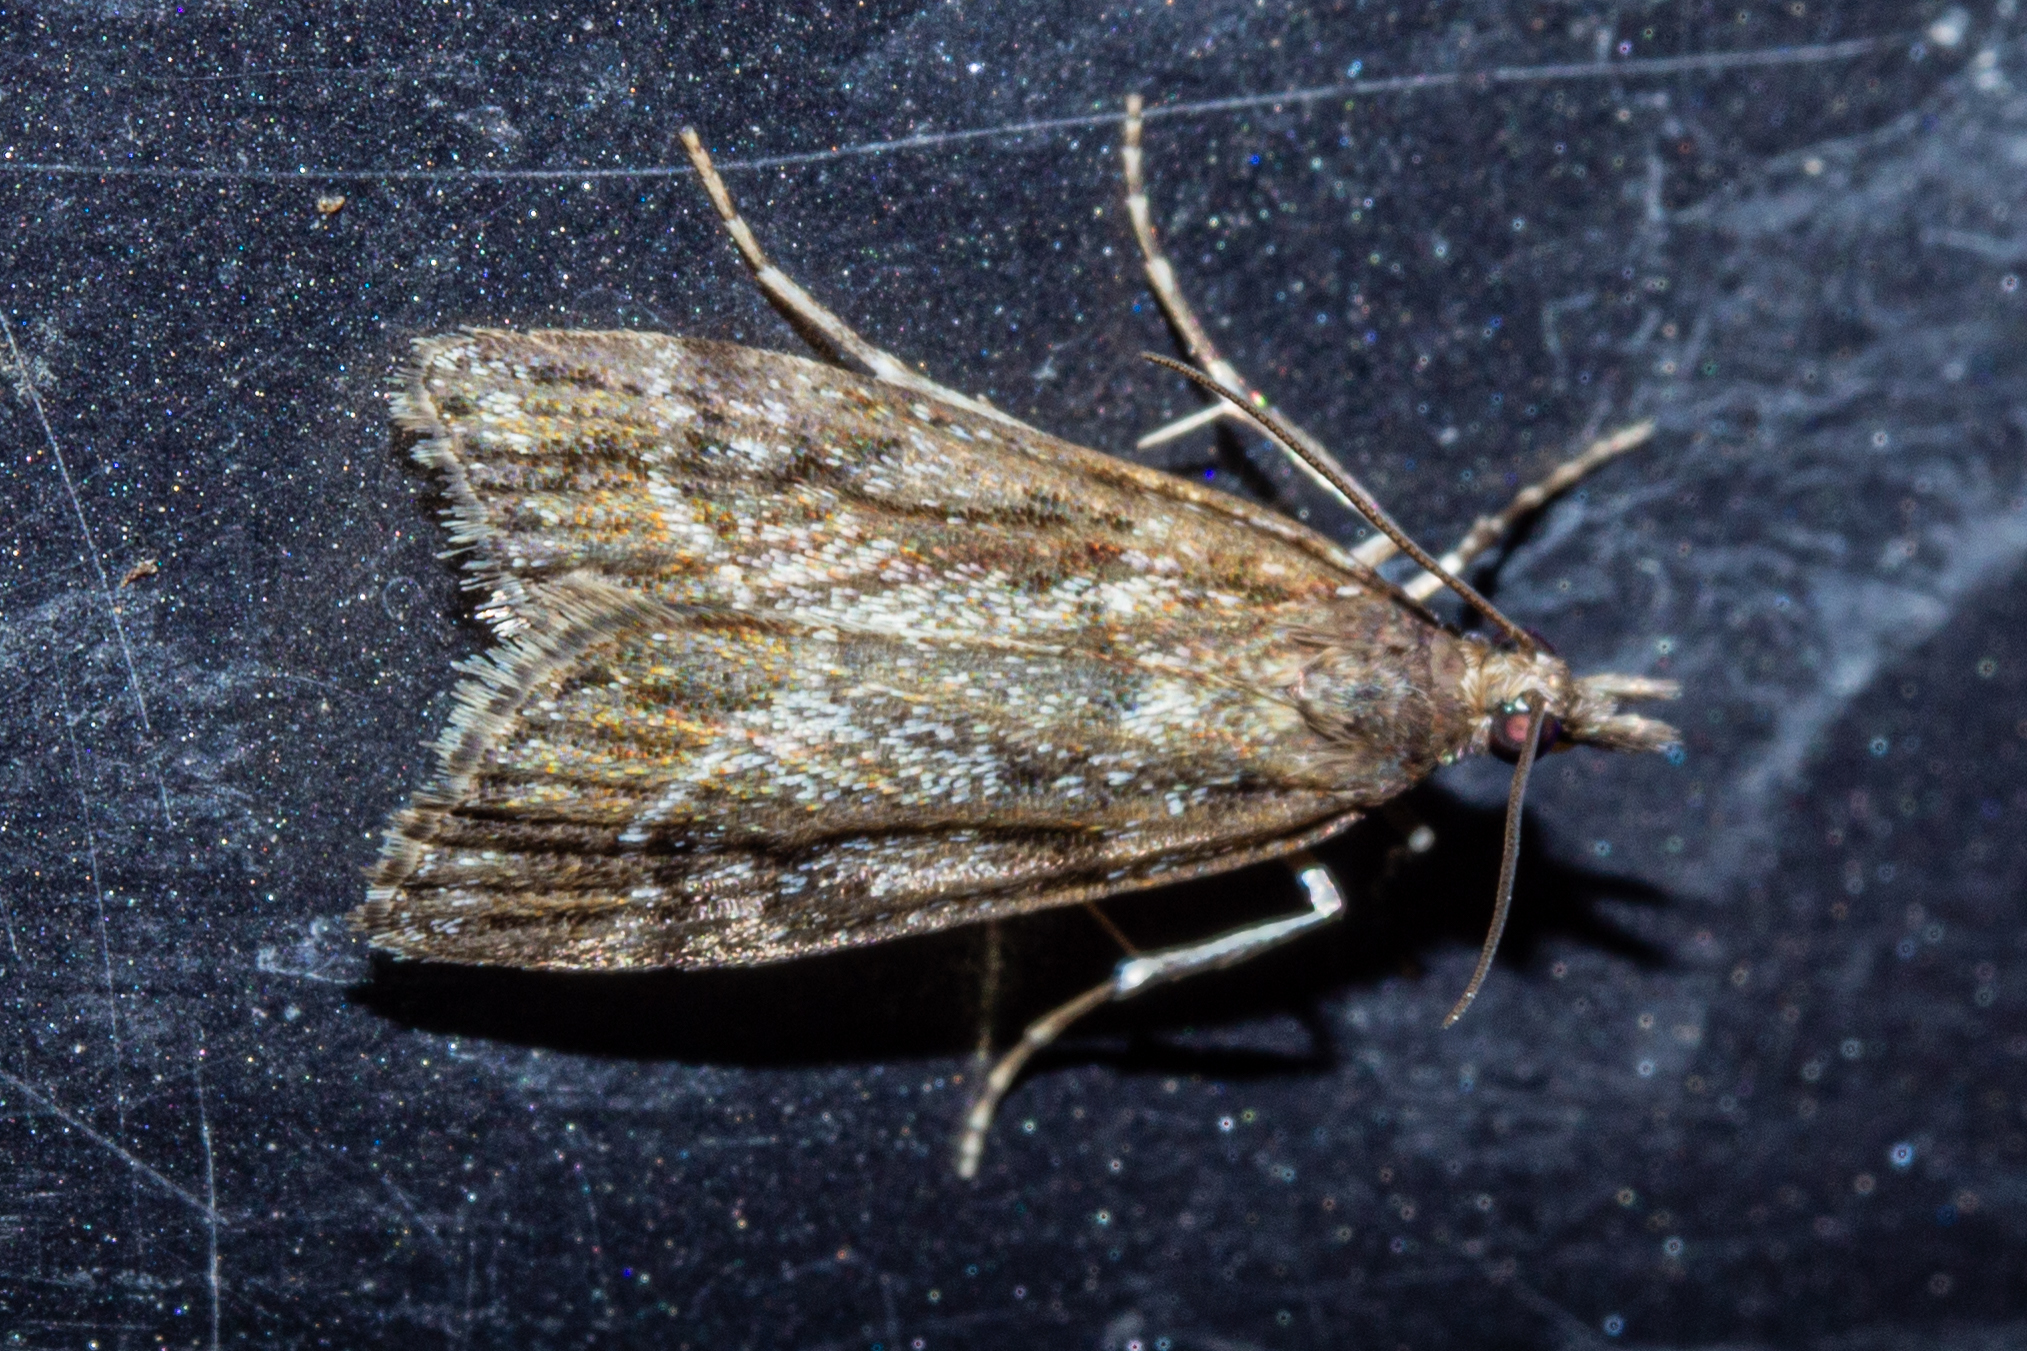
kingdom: Animalia
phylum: Arthropoda
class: Insecta
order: Lepidoptera
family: Crambidae
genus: Eudonia
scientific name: Eudonia chalara
